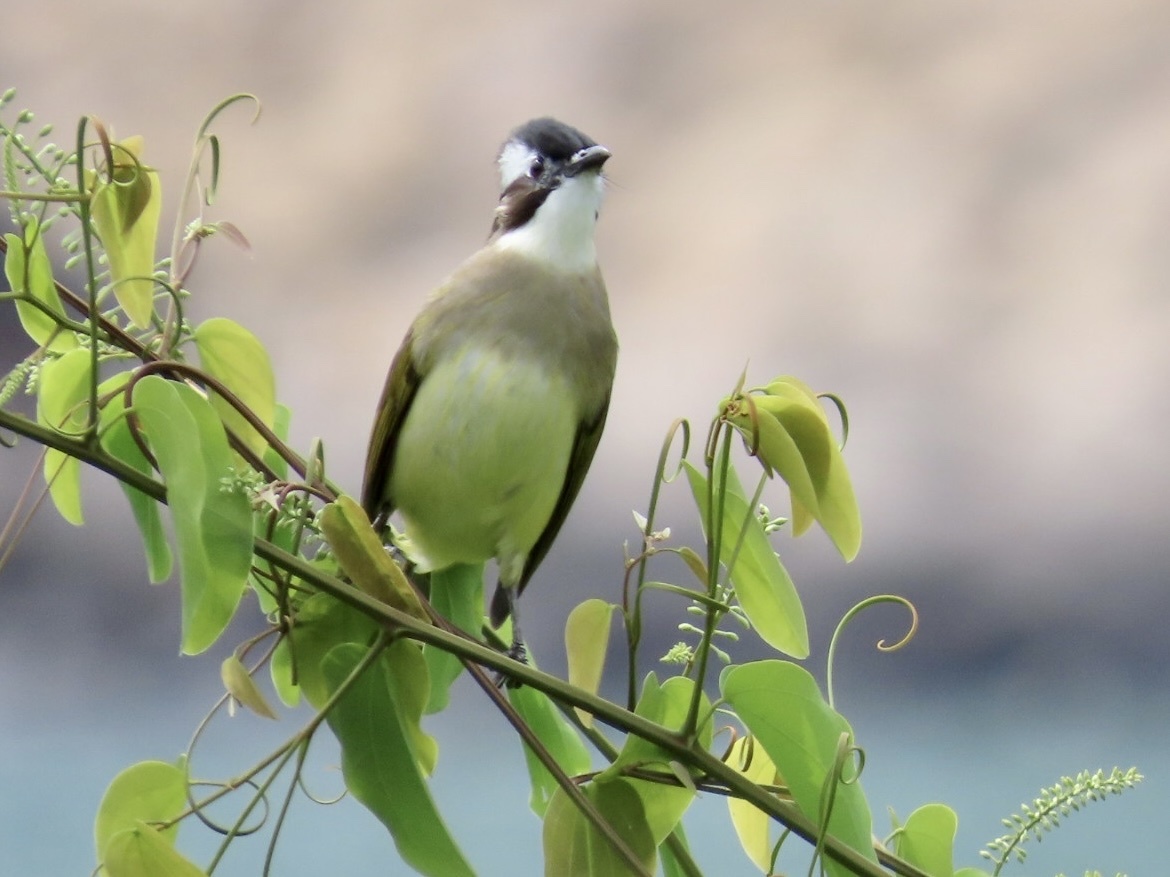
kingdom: Animalia
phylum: Chordata
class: Aves
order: Passeriformes
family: Pycnonotidae
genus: Pycnonotus
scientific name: Pycnonotus sinensis
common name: Light-vented bulbul
